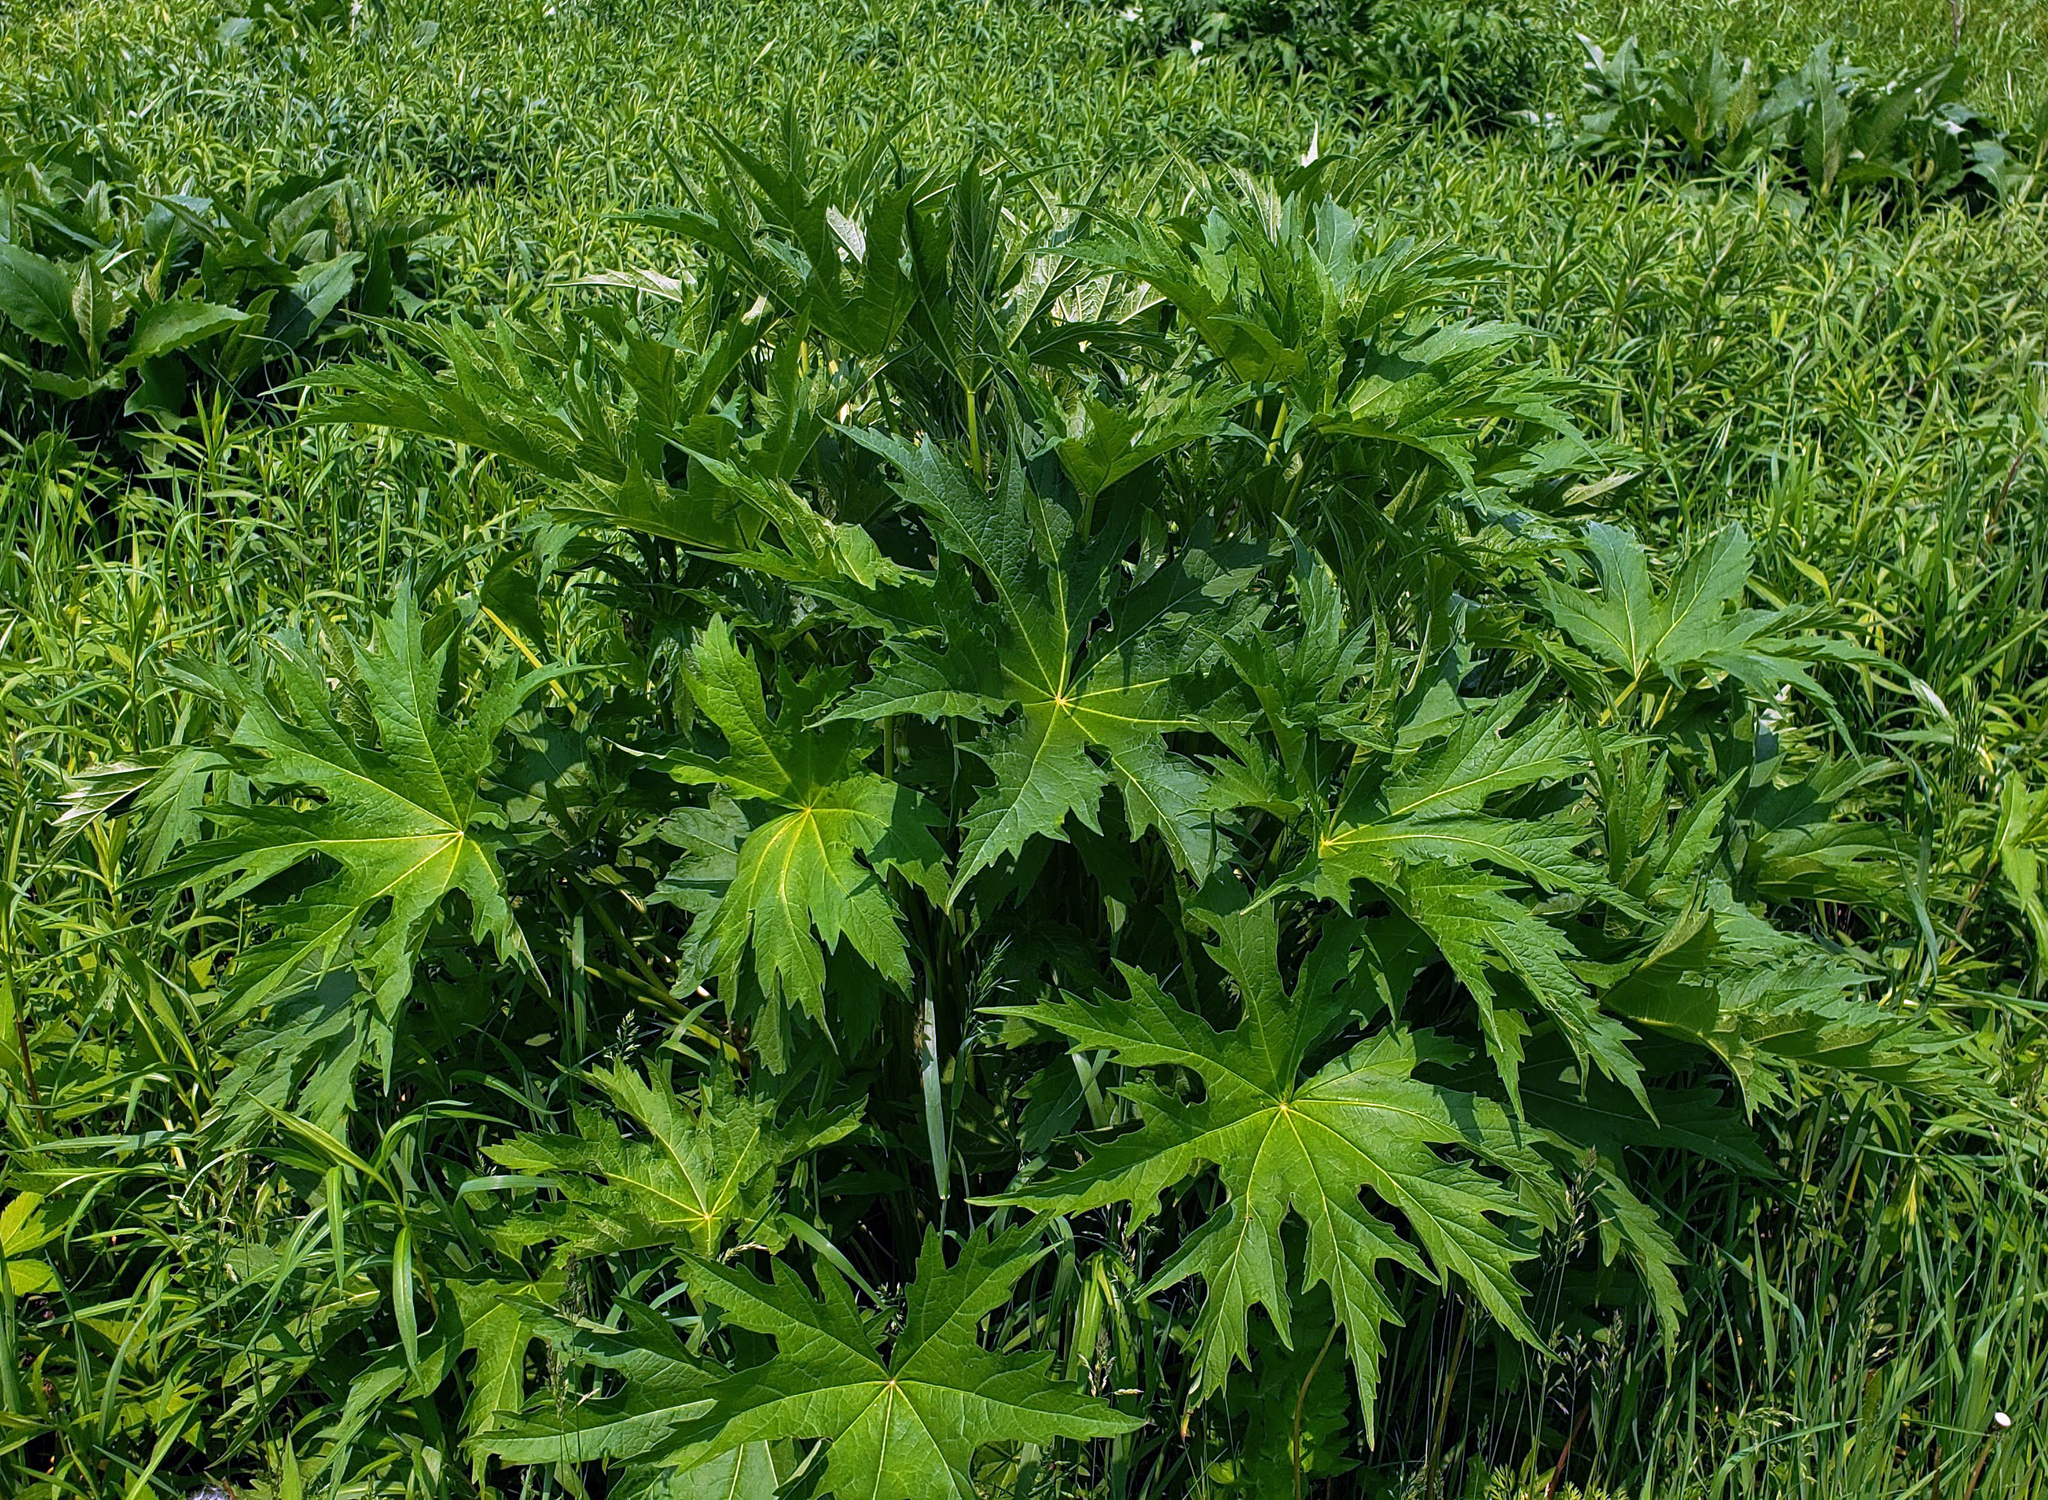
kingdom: Plantae
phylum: Tracheophyta
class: Magnoliopsida
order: Malvales
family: Malvaceae
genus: Napaea
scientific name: Napaea dioica
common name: Glade-mallow
